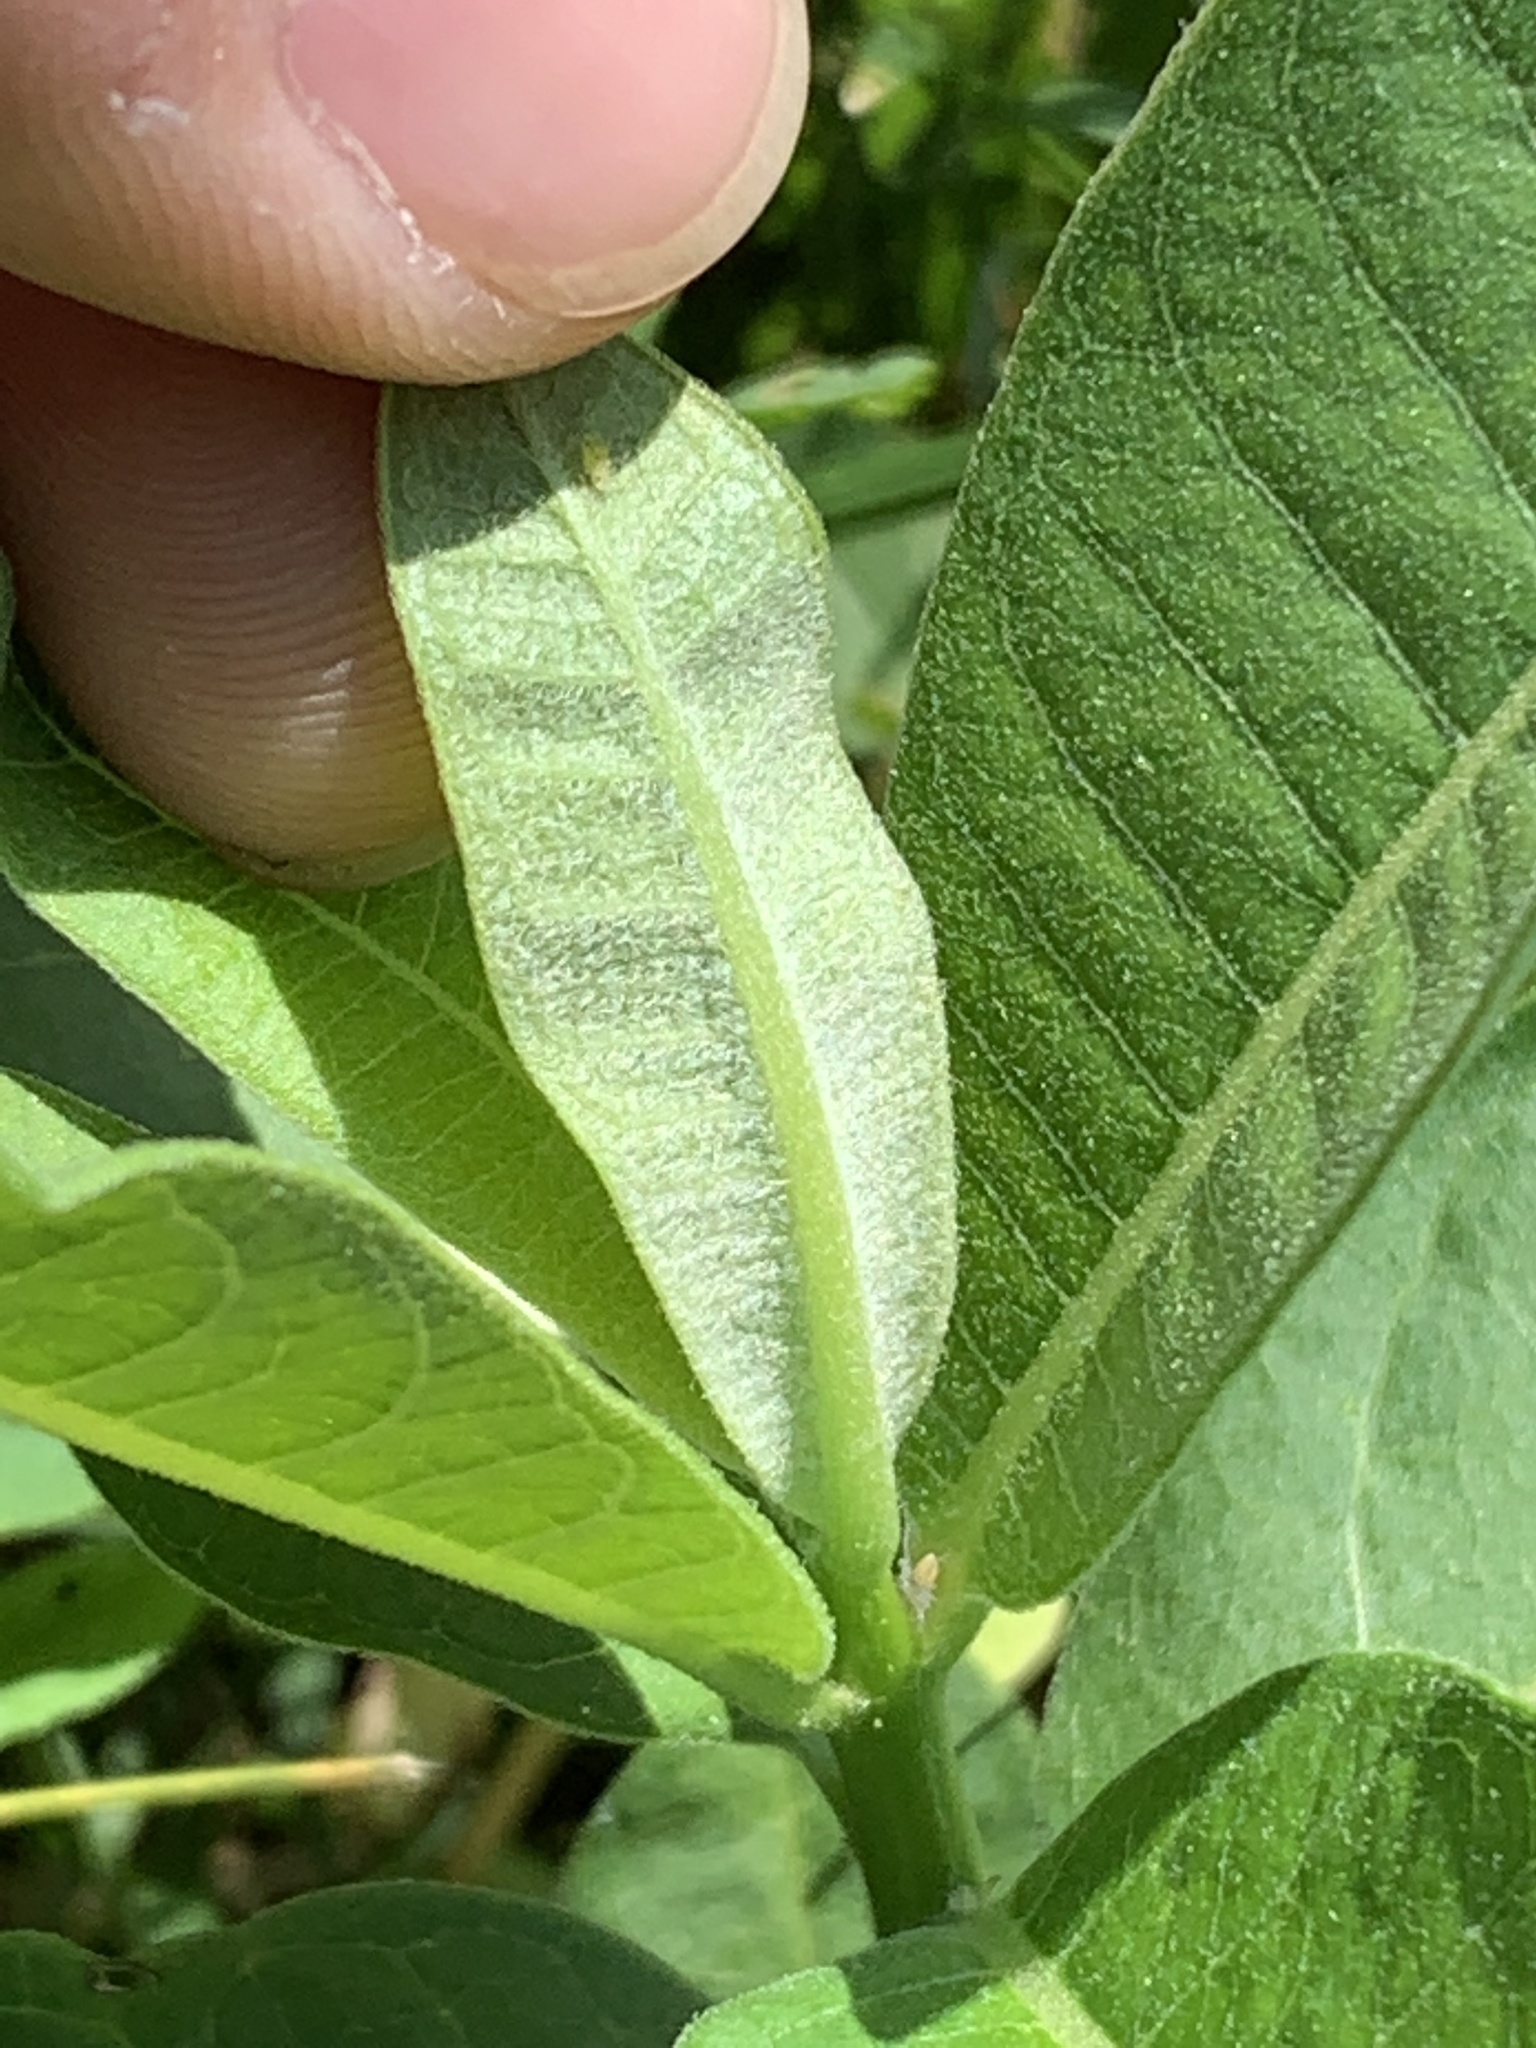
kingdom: Plantae
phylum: Tracheophyta
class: Magnoliopsida
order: Gentianales
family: Apocynaceae
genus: Asclepias
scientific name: Asclepias syriaca
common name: Common milkweed
